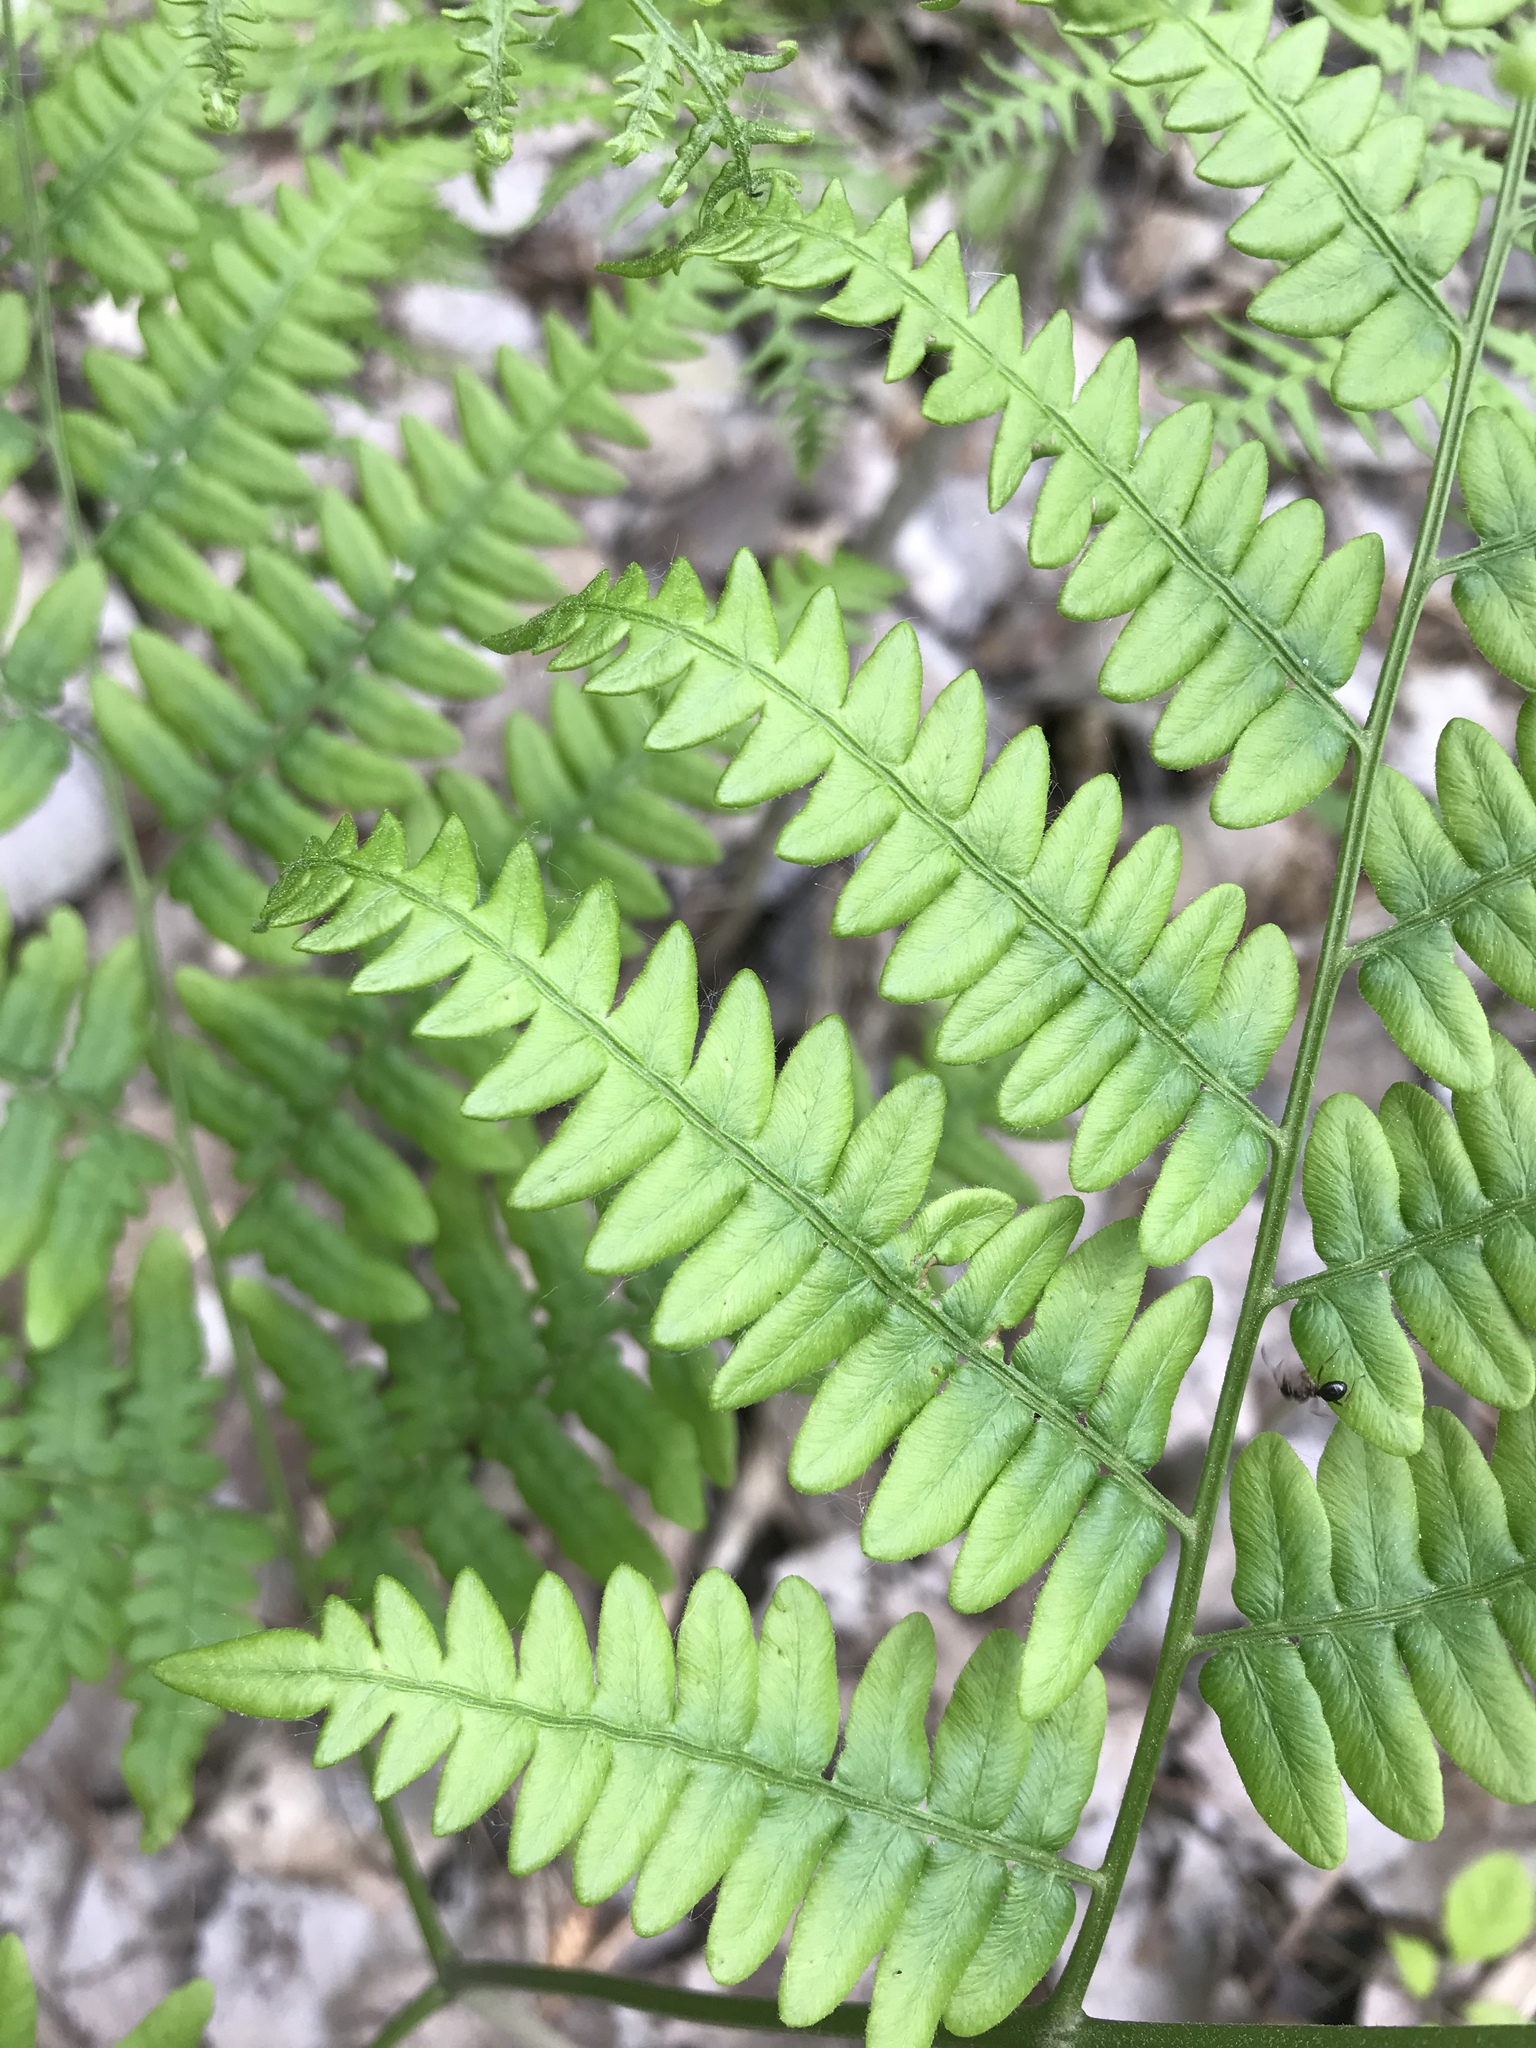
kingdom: Plantae
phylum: Tracheophyta
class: Polypodiopsida
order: Polypodiales
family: Dennstaedtiaceae
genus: Pteridium
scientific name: Pteridium aquilinum
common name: Bracken
